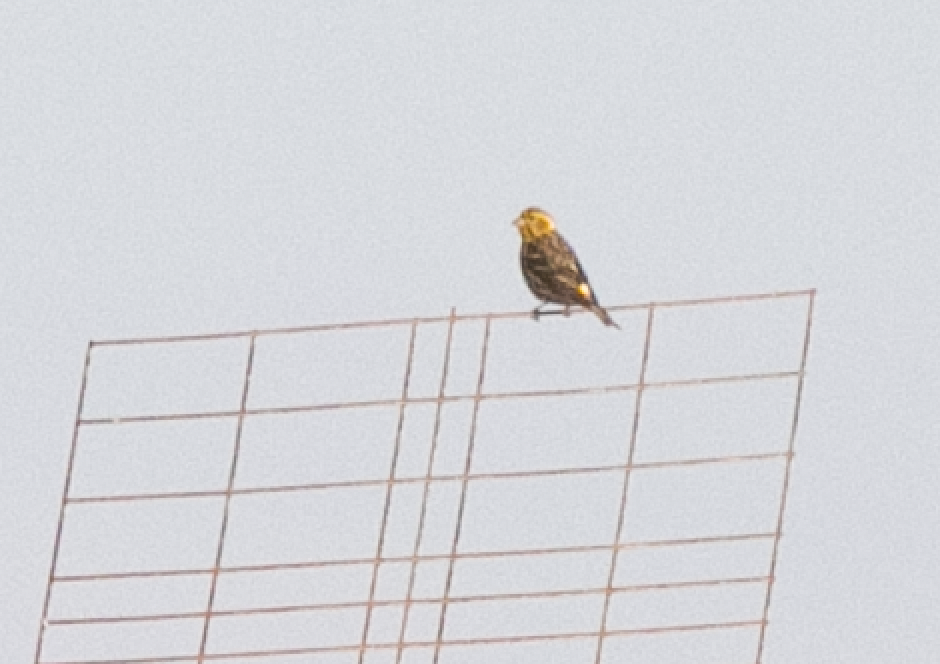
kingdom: Animalia
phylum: Chordata
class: Aves
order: Passeriformes
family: Fringillidae
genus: Serinus
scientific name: Serinus serinus
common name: European serin
